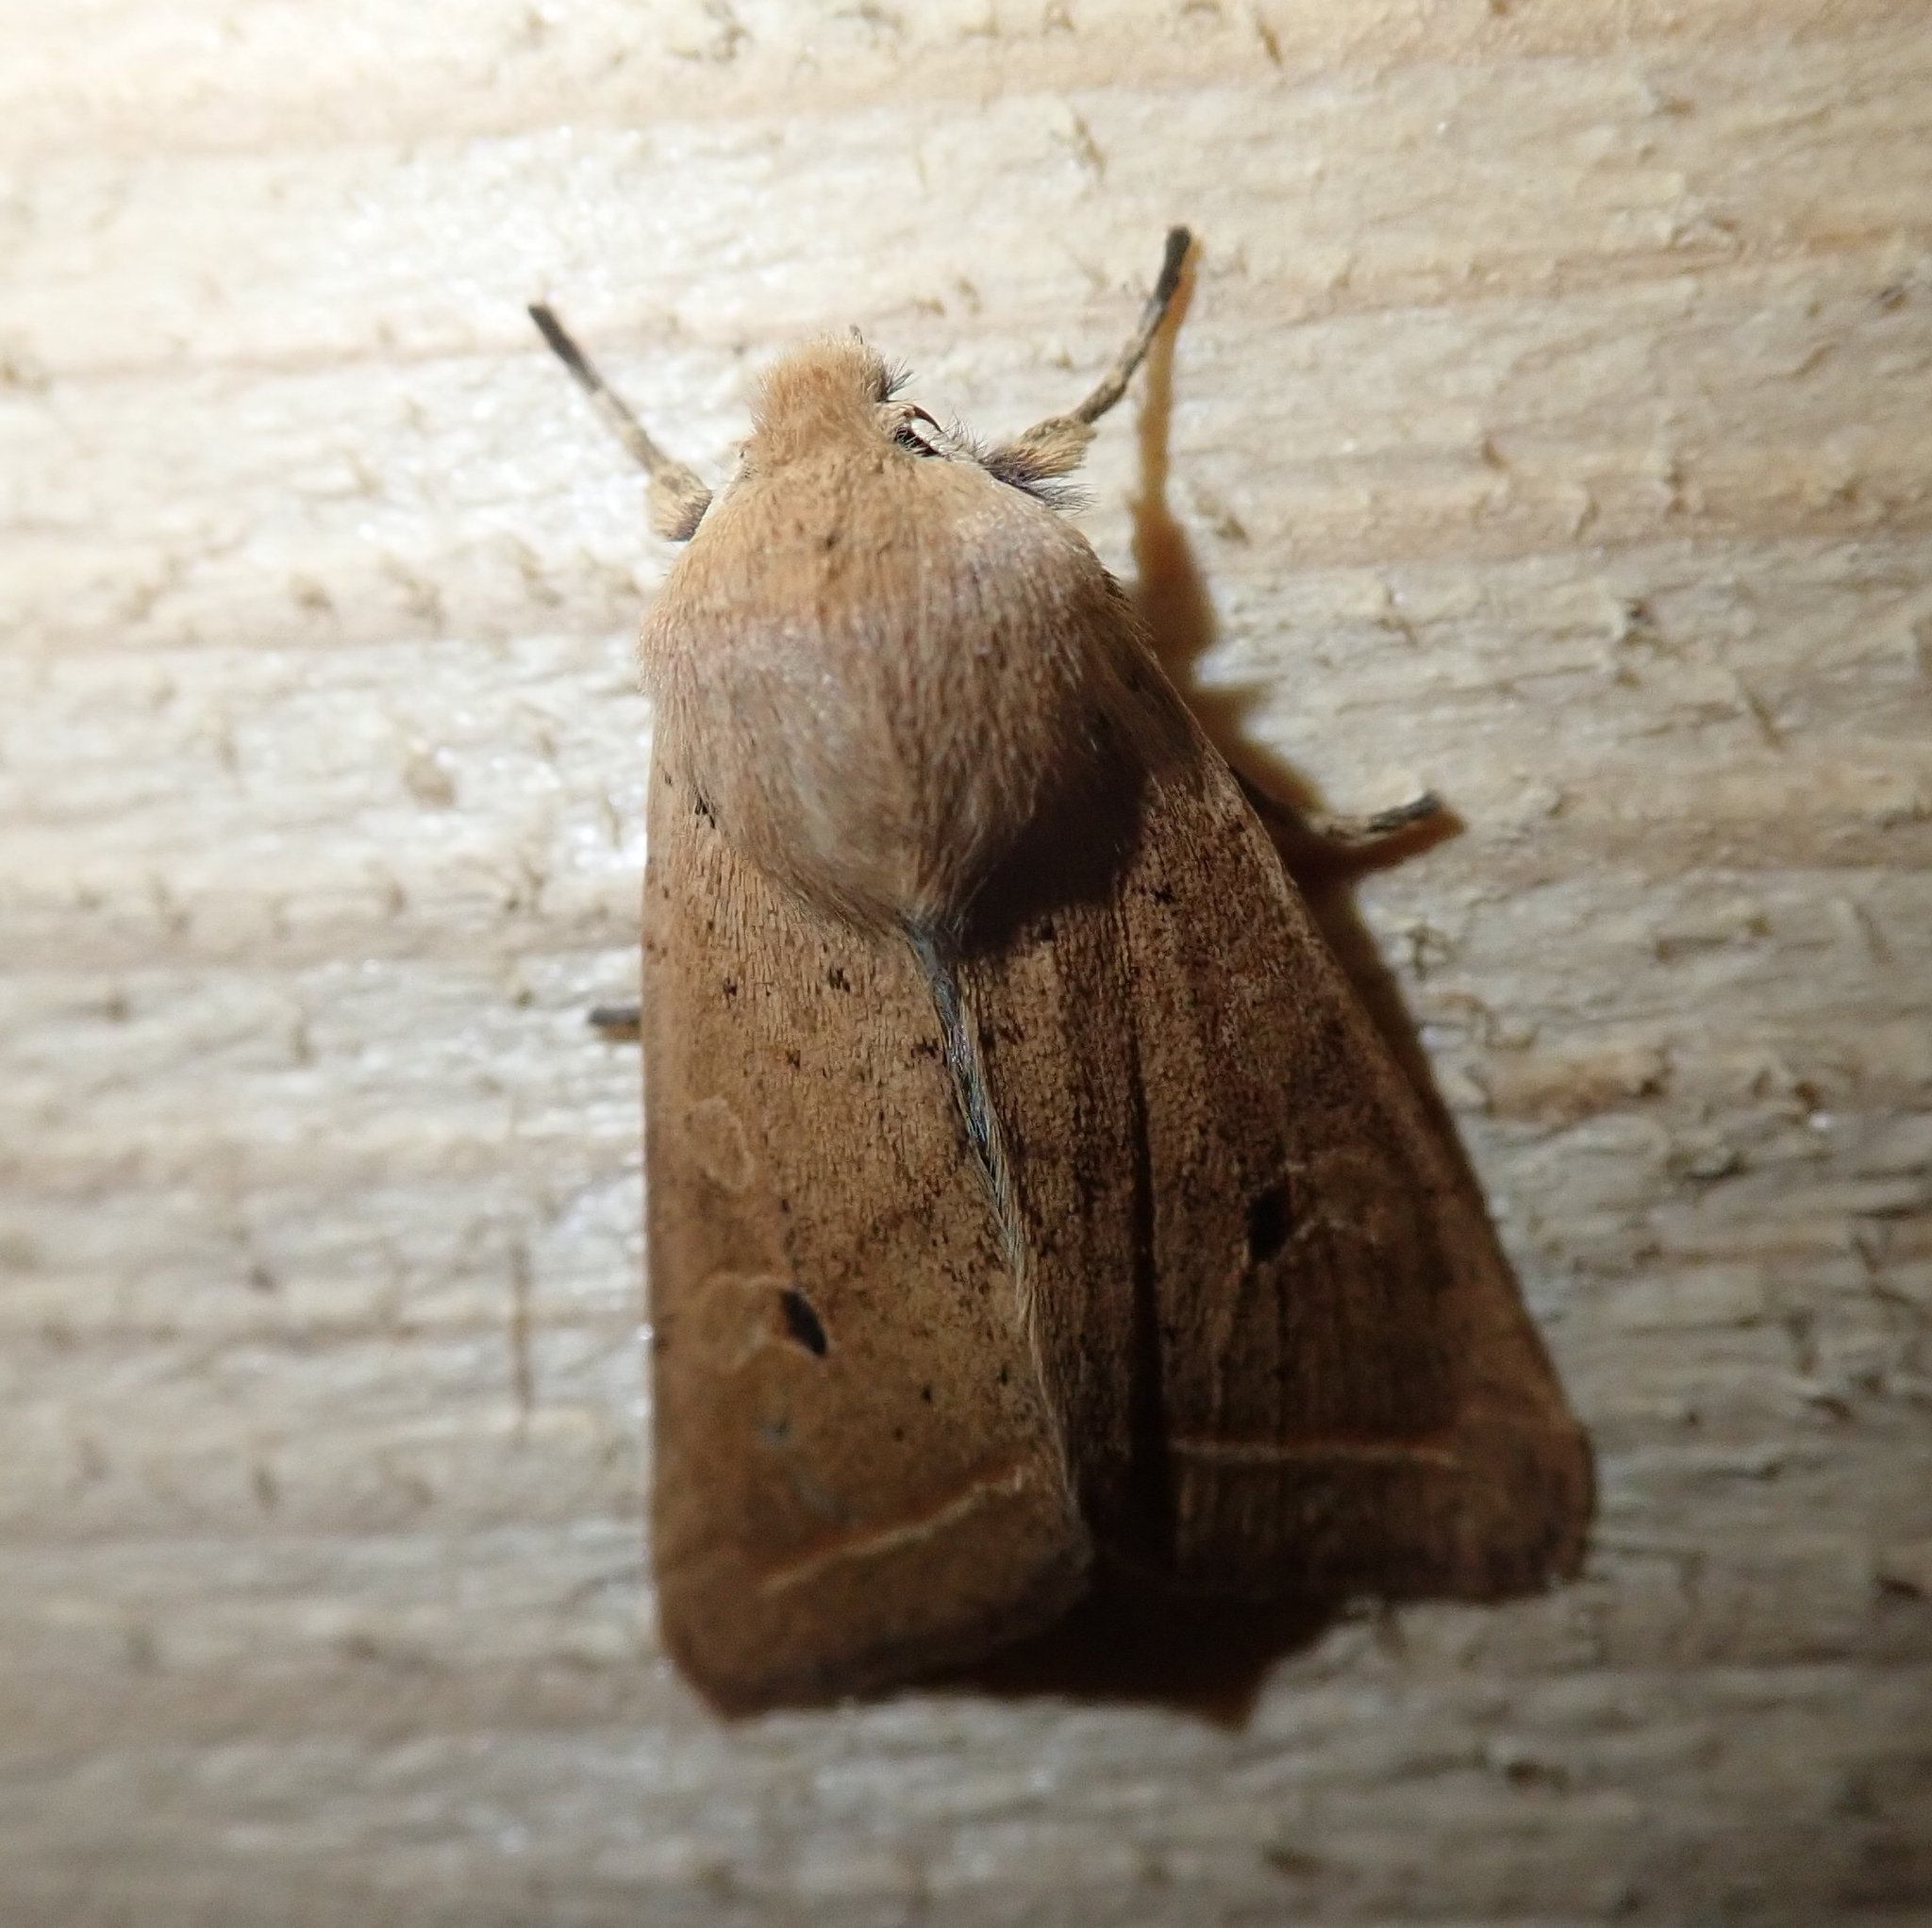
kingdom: Animalia
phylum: Arthropoda
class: Insecta
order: Lepidoptera
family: Noctuidae
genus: Agrochola
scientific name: Agrochola macilenta
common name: Yellow-line quaker
